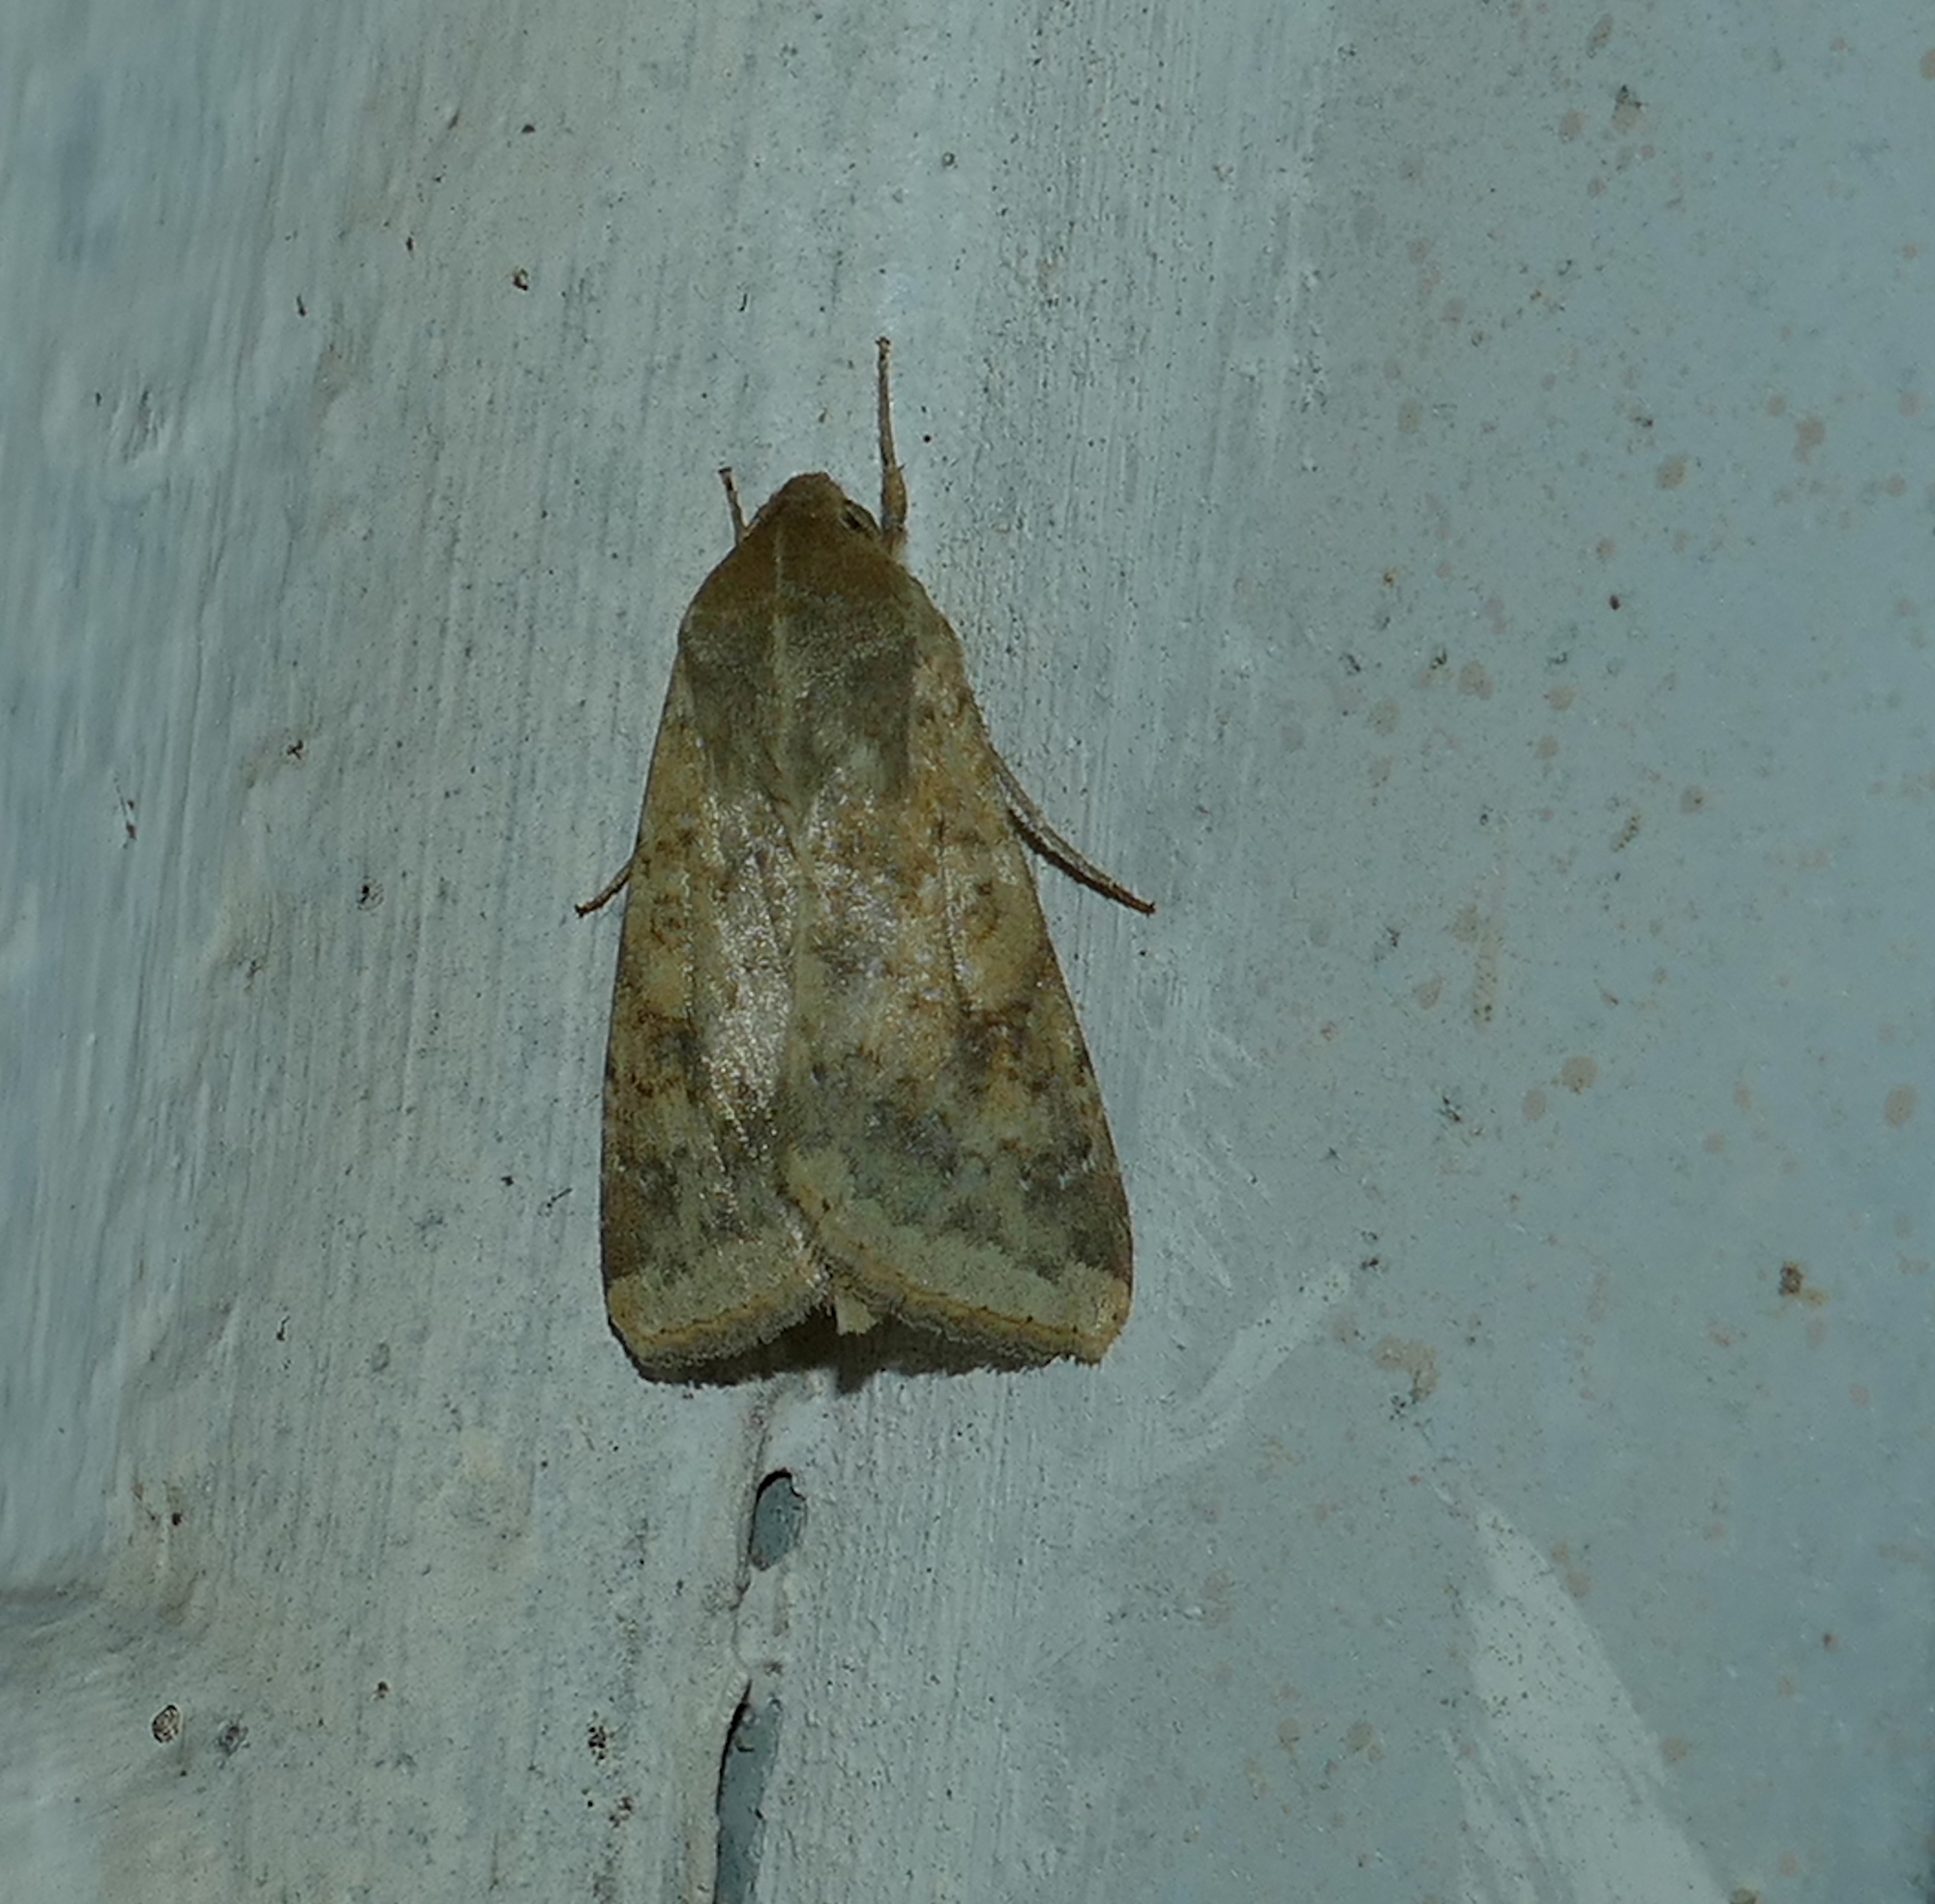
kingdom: Animalia
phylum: Arthropoda
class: Insecta
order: Lepidoptera
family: Noctuidae
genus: Helicoverpa
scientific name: Helicoverpa zea
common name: Bollworm
